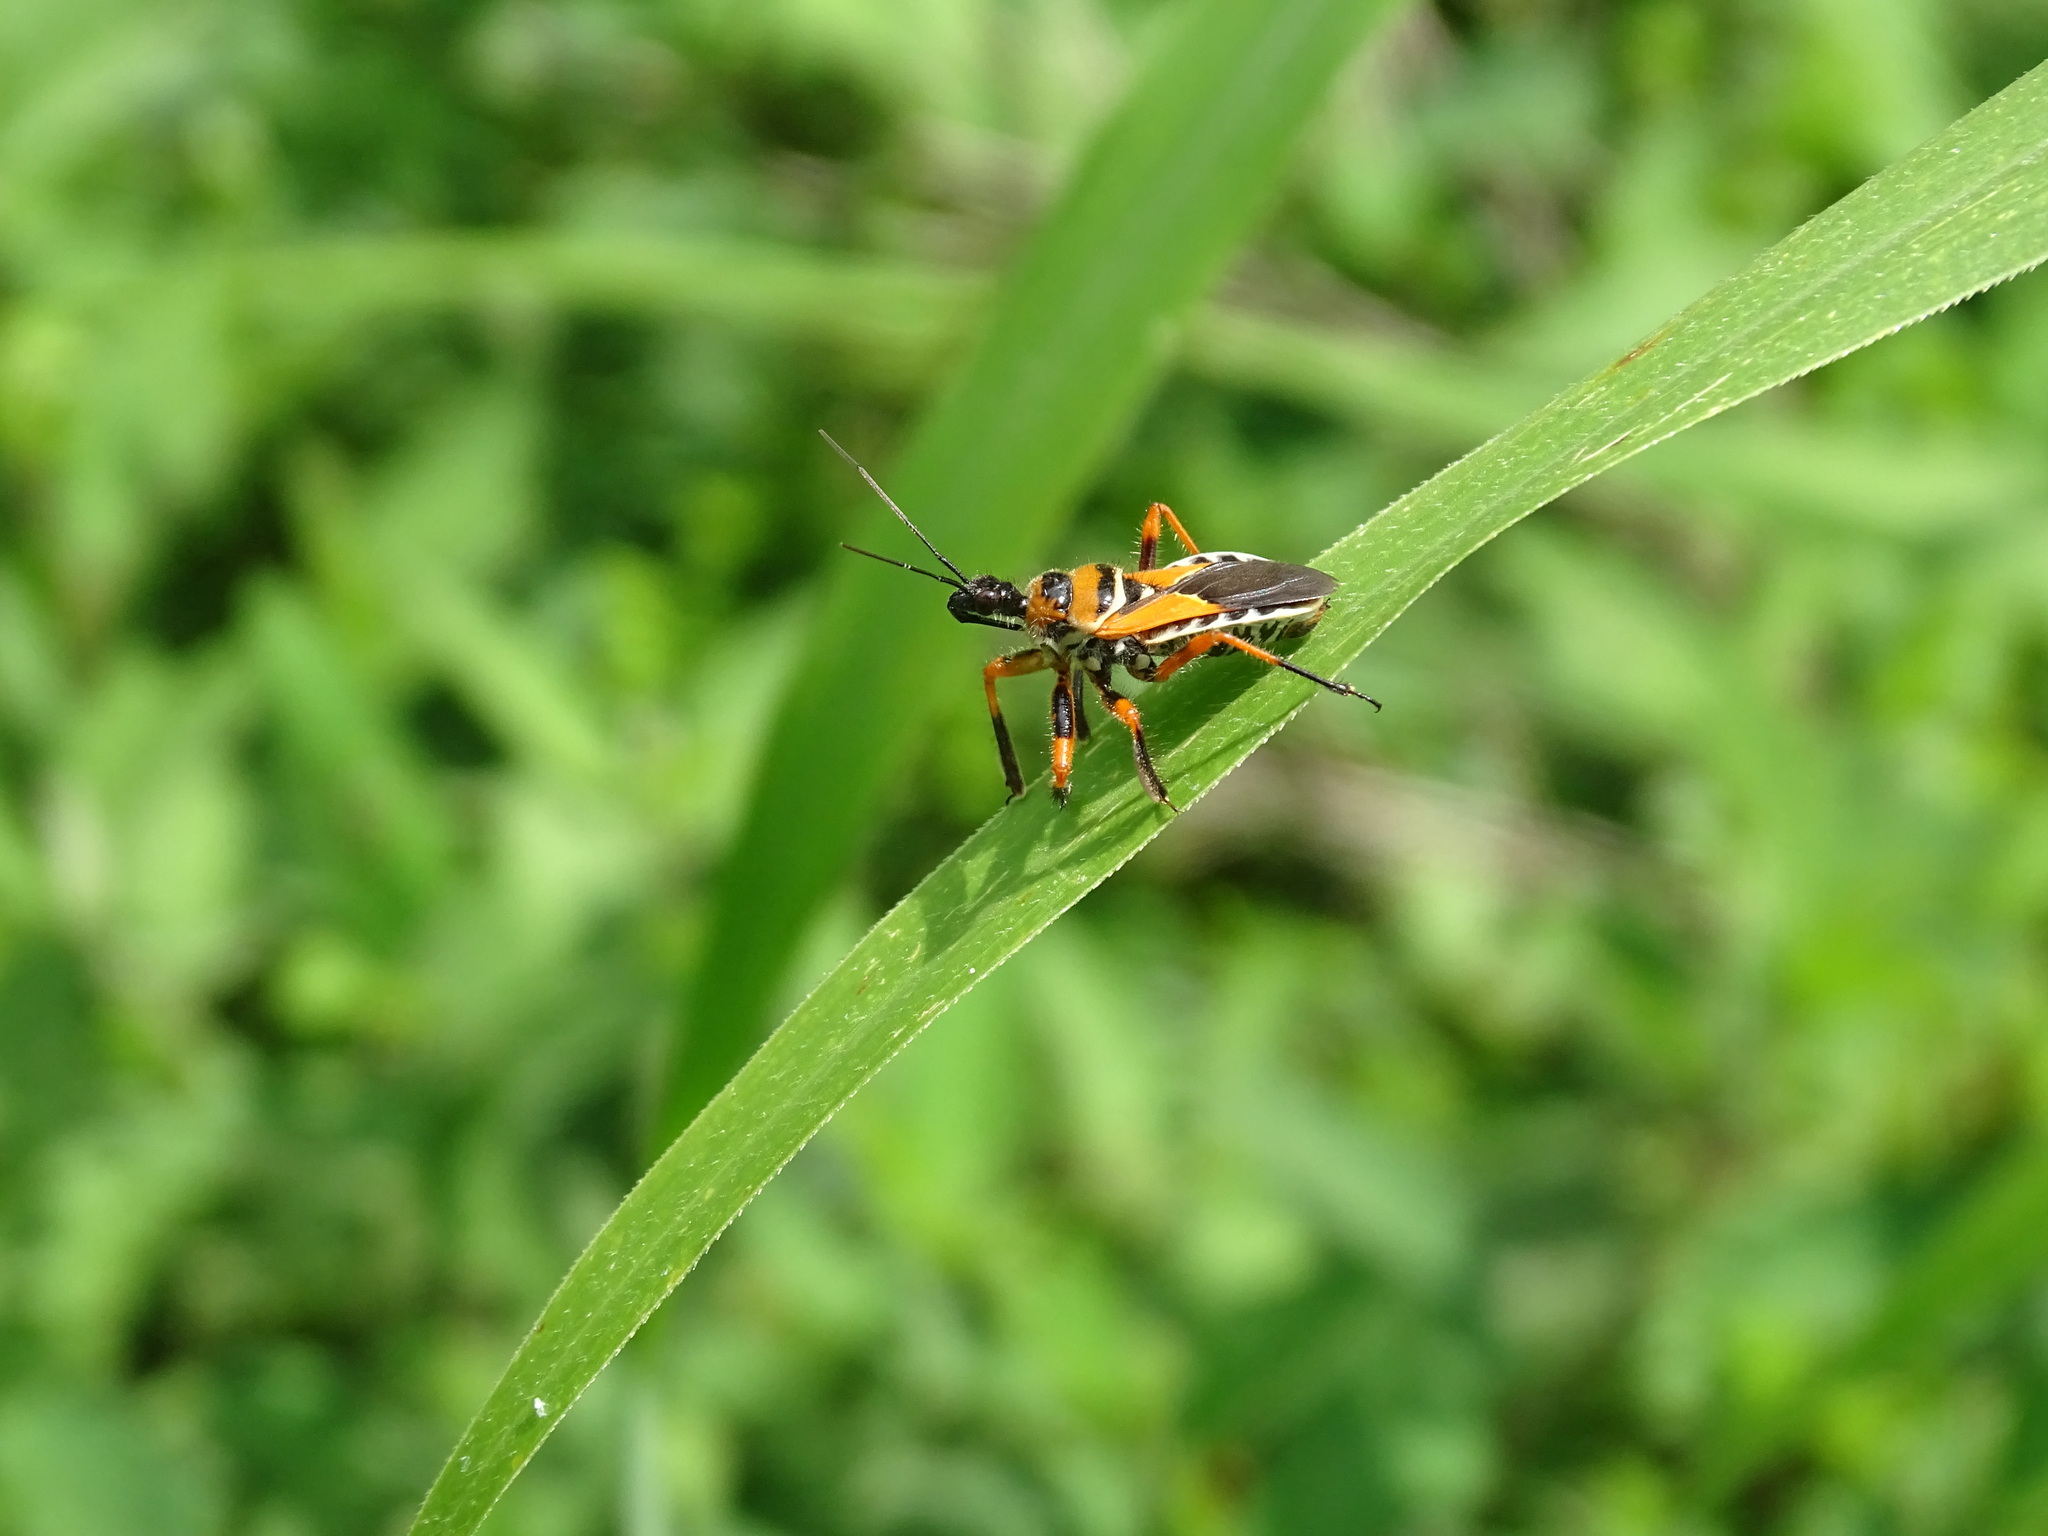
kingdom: Animalia
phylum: Arthropoda
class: Insecta
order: Hemiptera
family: Reduviidae
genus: Apiomerus
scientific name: Apiomerus pictipes
